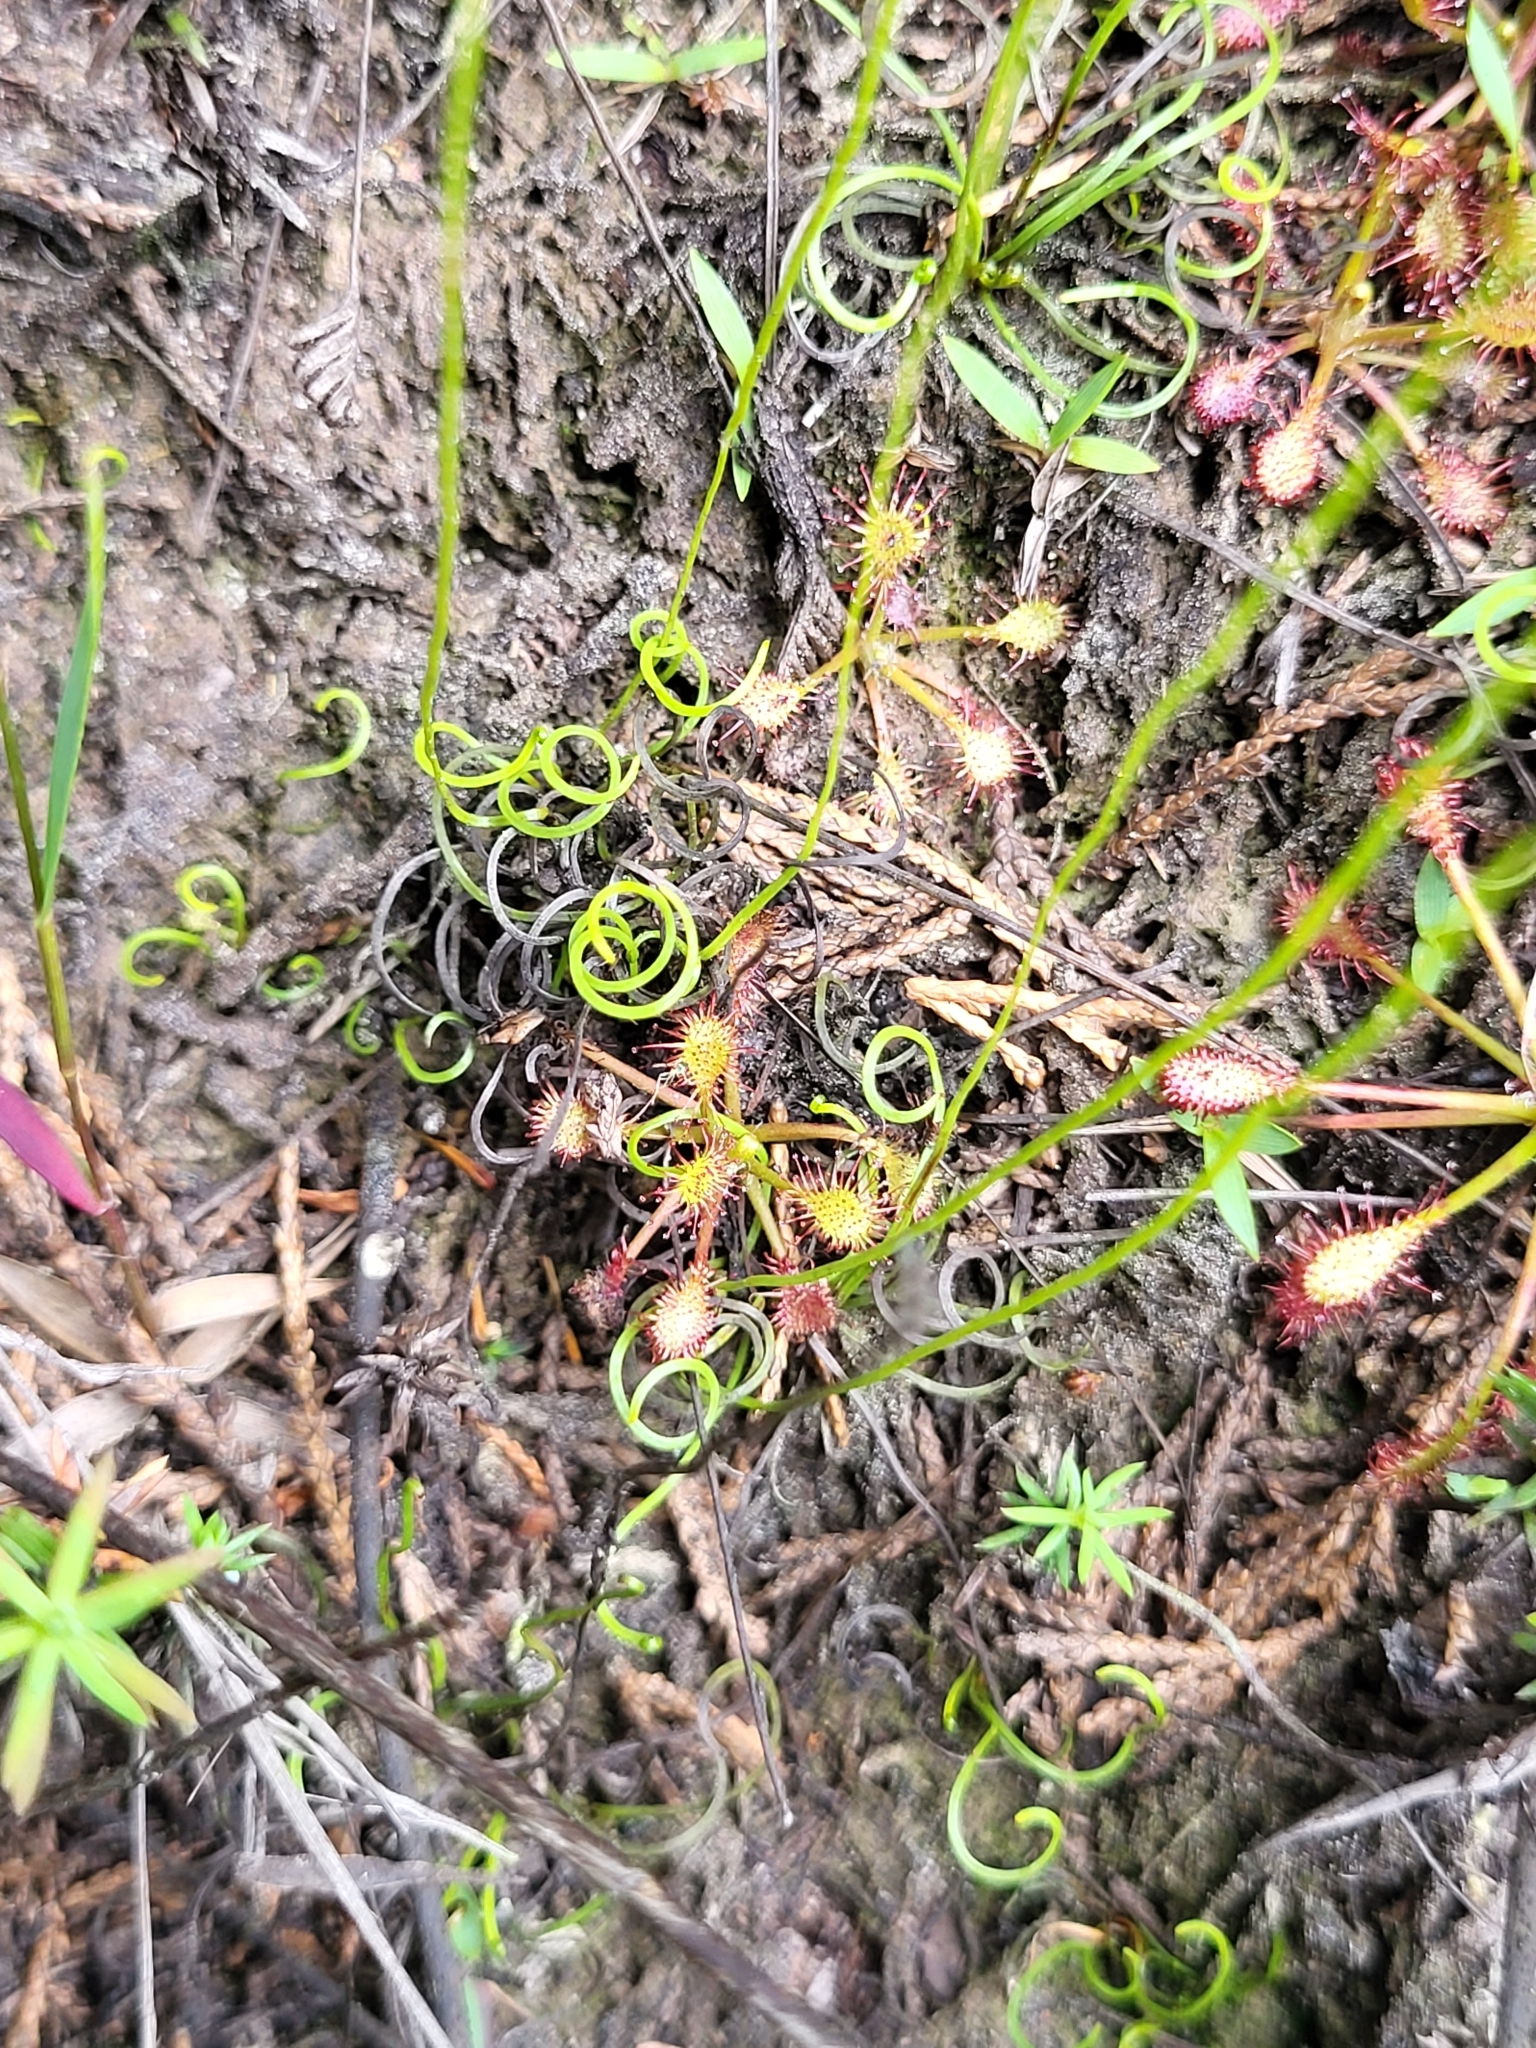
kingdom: Plantae
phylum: Tracheophyta
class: Polypodiopsida
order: Schizaeales
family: Schizaeaceae
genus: Schizaea
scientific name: Schizaea pusilla
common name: Curly-grass fern
